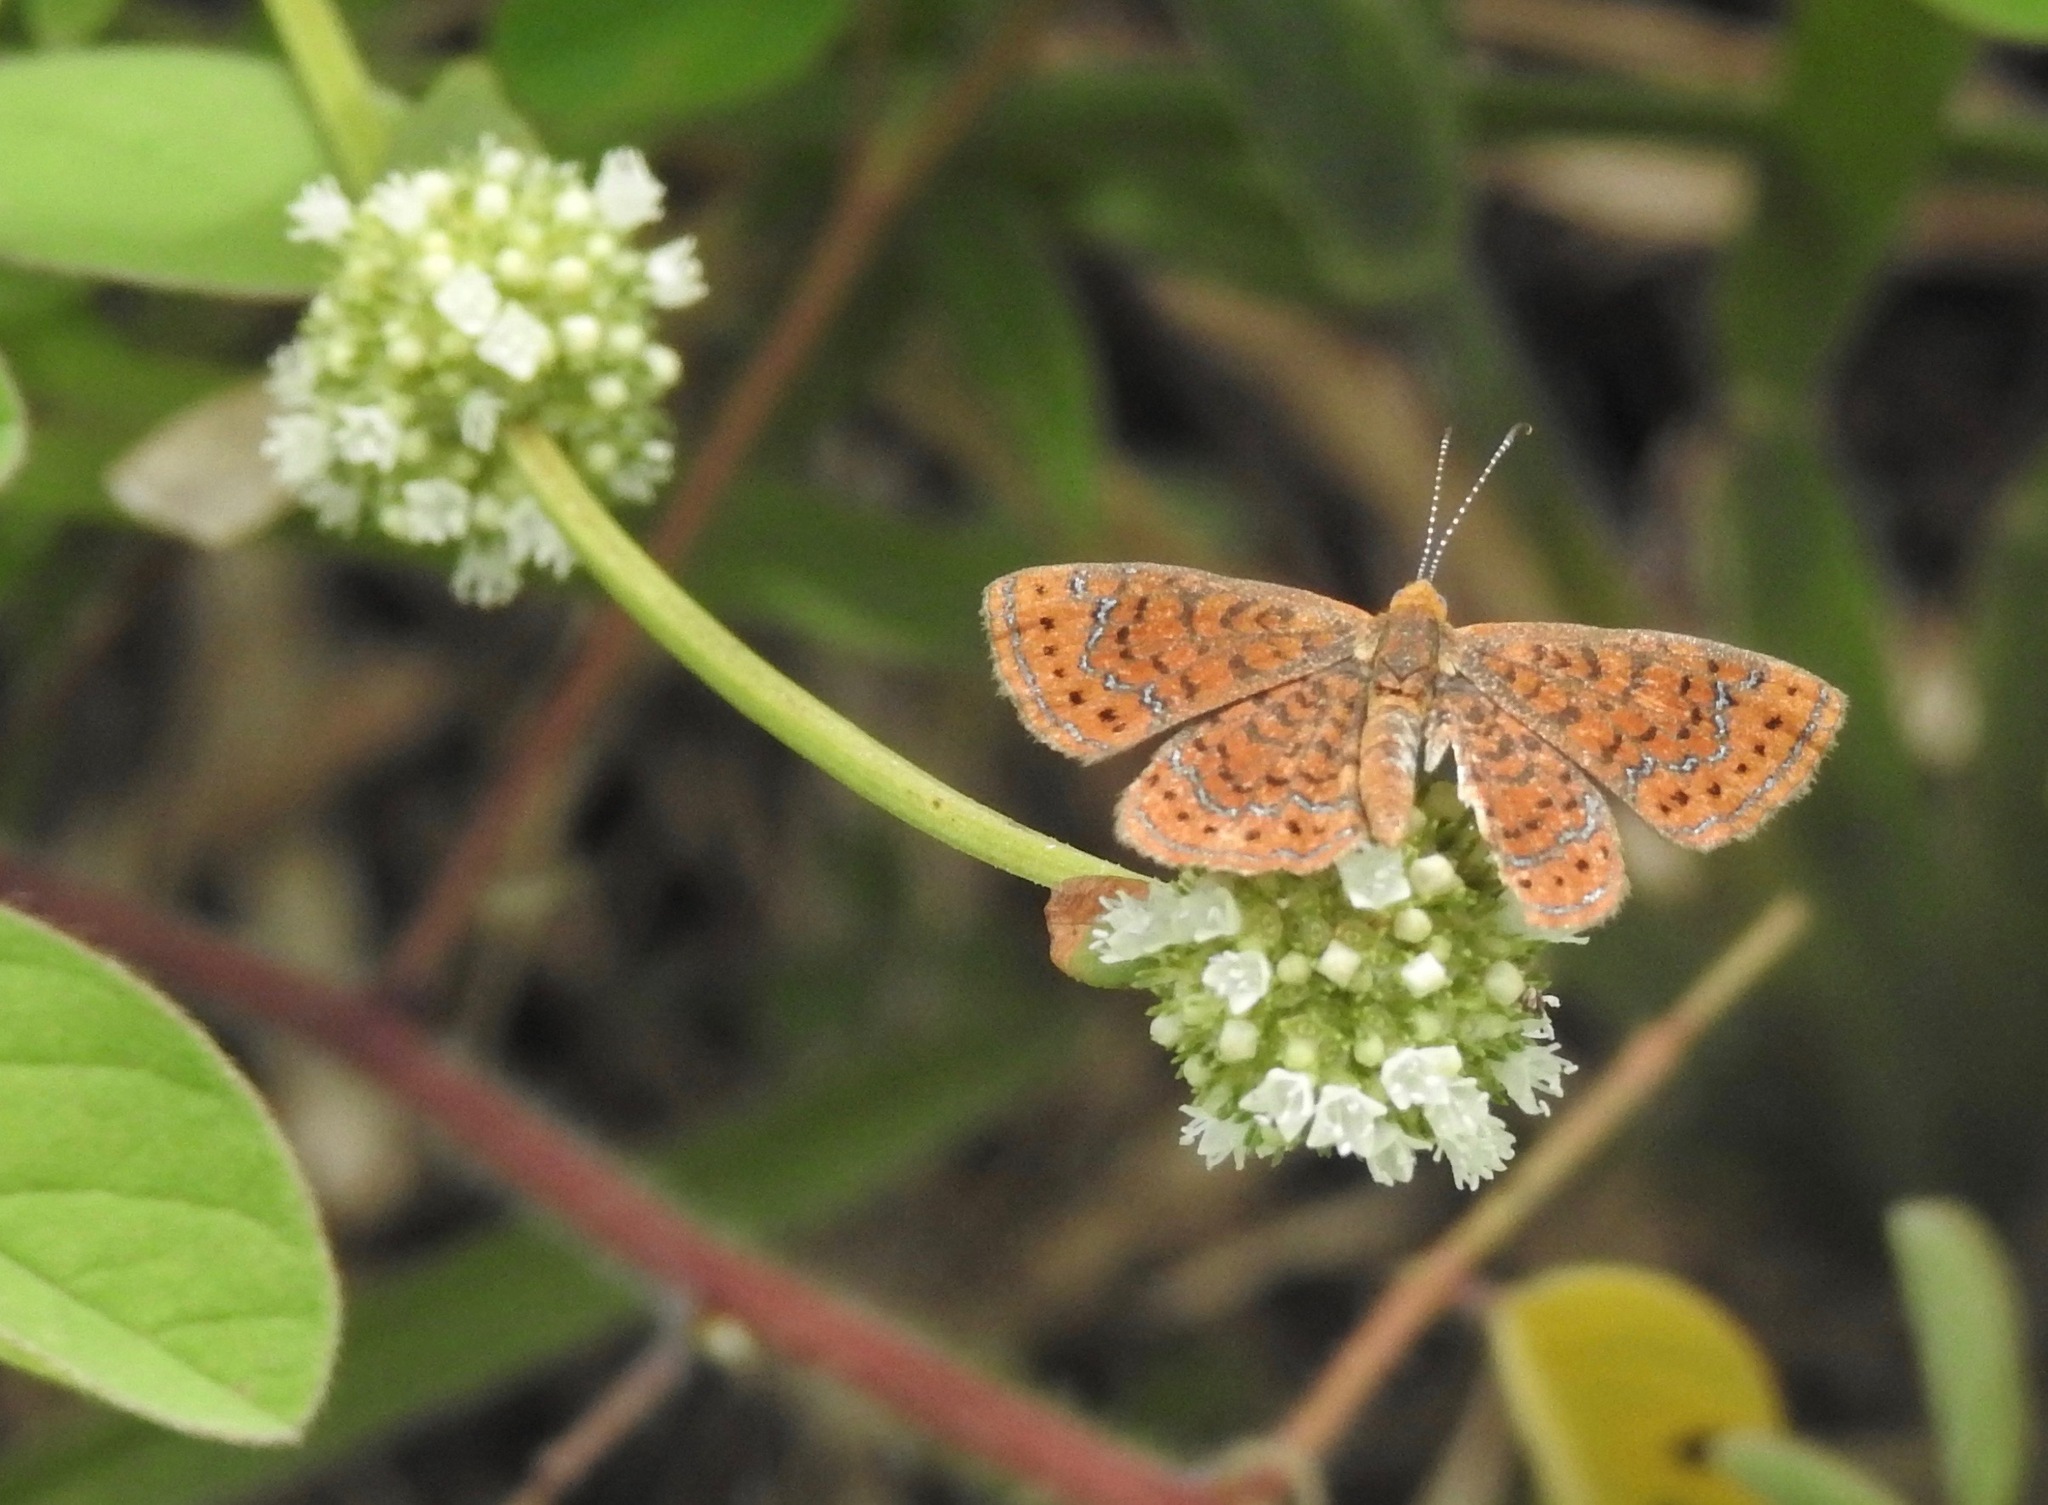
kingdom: Animalia
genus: Calephelis
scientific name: Calephelis virginiensis
